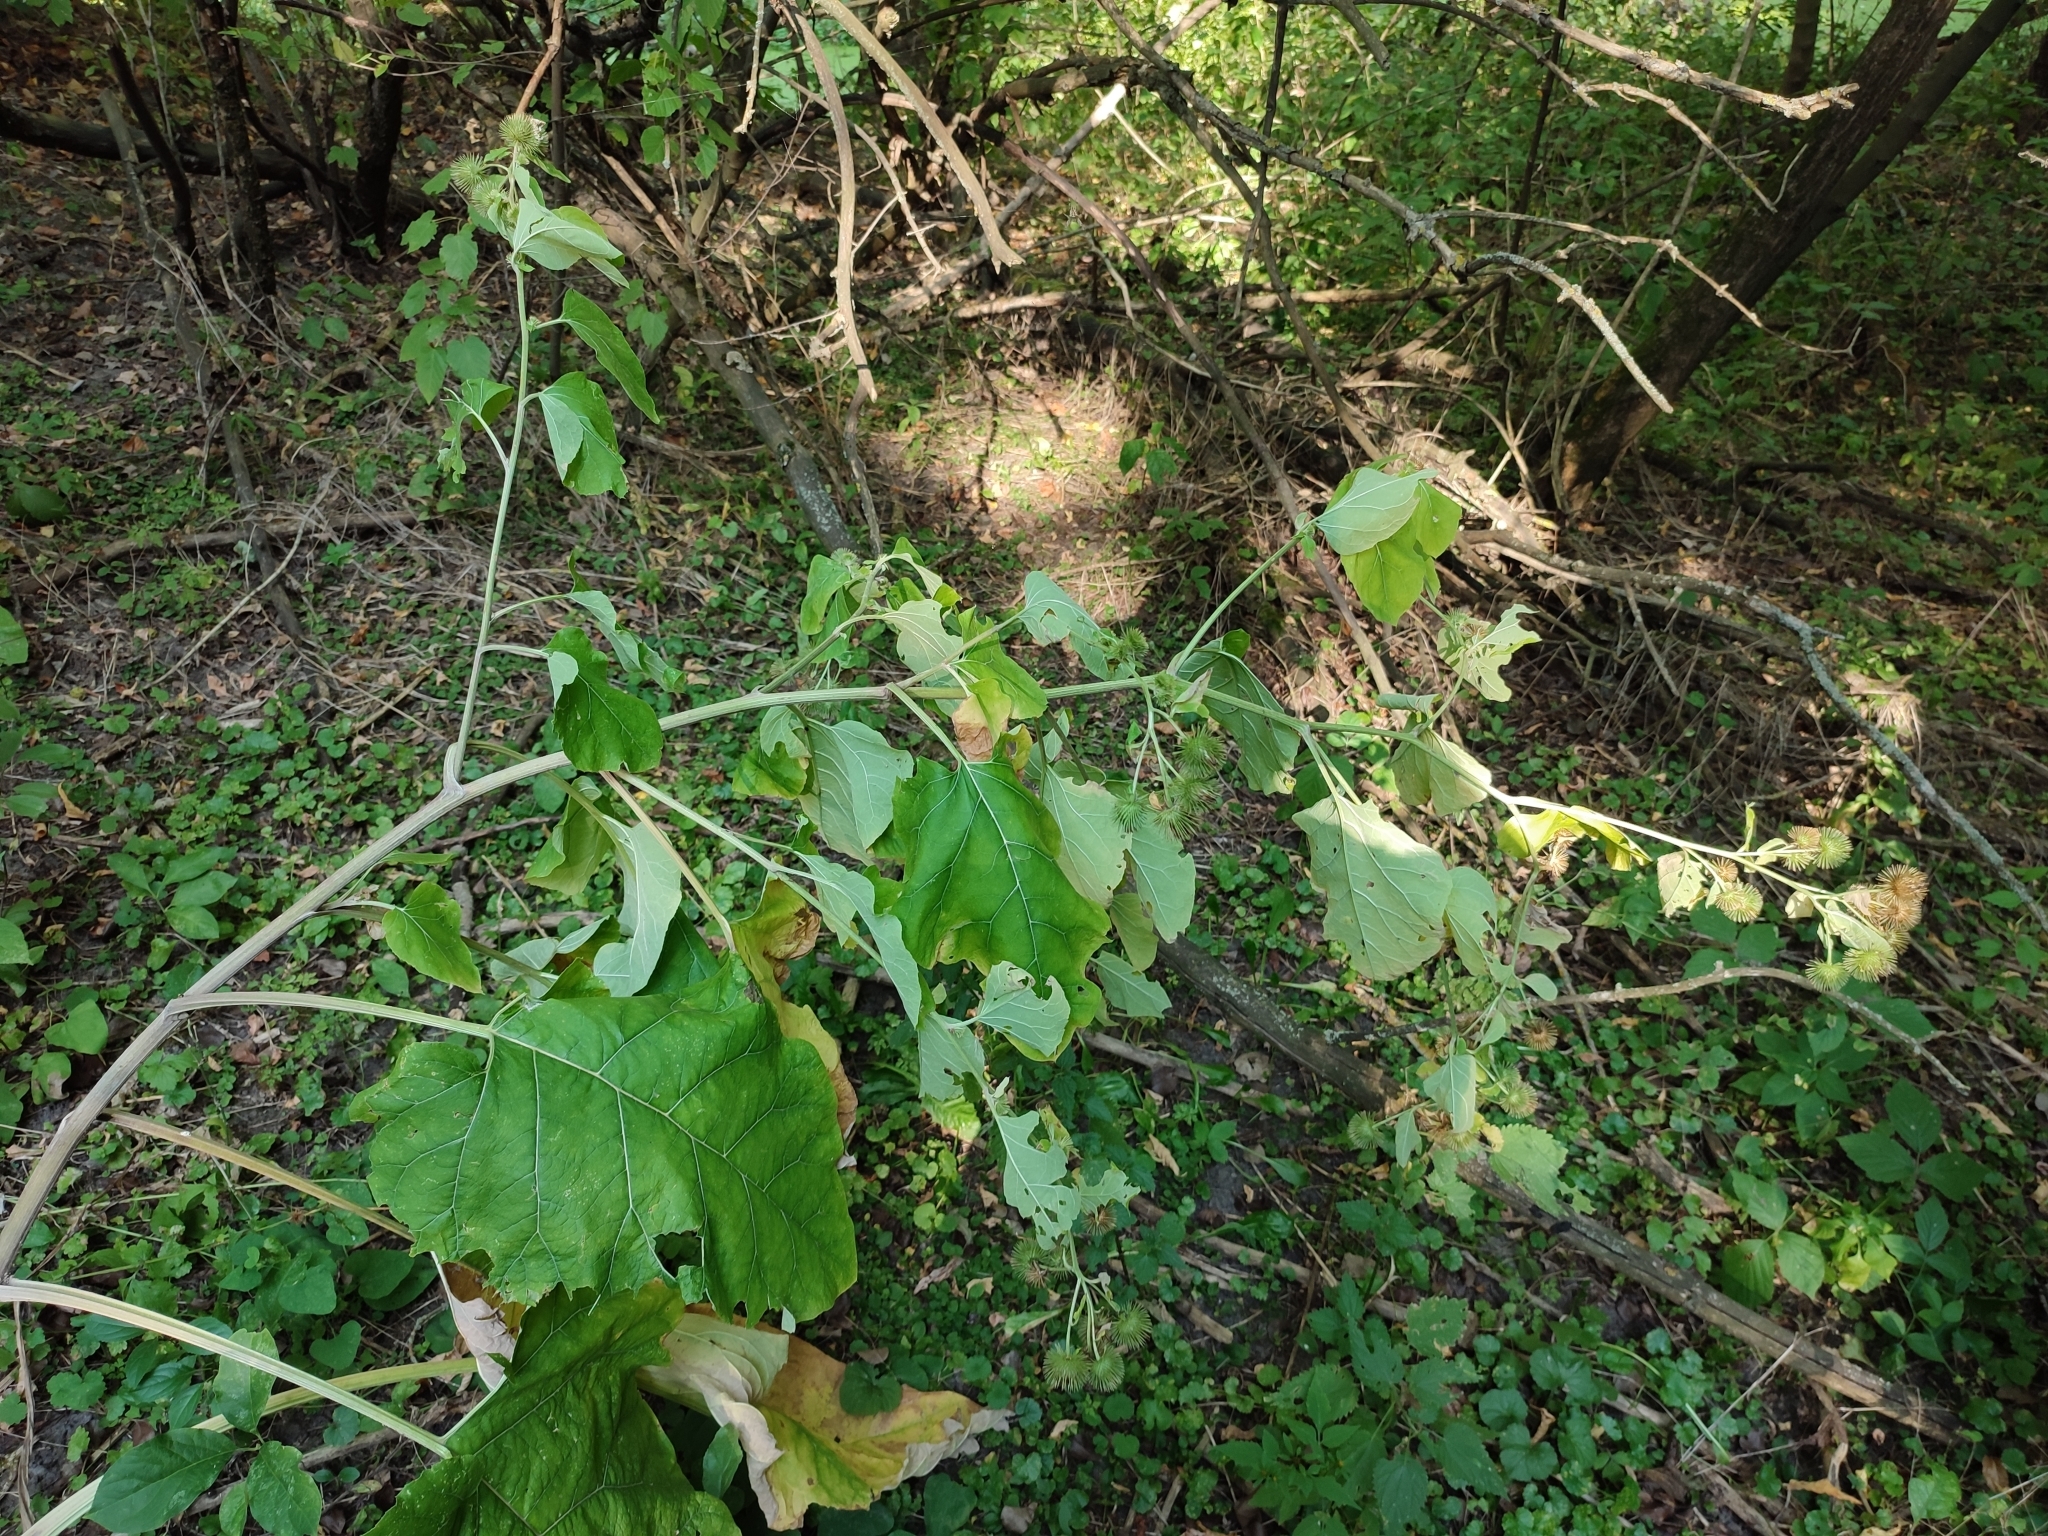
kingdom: Plantae
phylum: Tracheophyta
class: Magnoliopsida
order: Asterales
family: Asteraceae
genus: Arctium
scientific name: Arctium lappa
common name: Greater burdock
